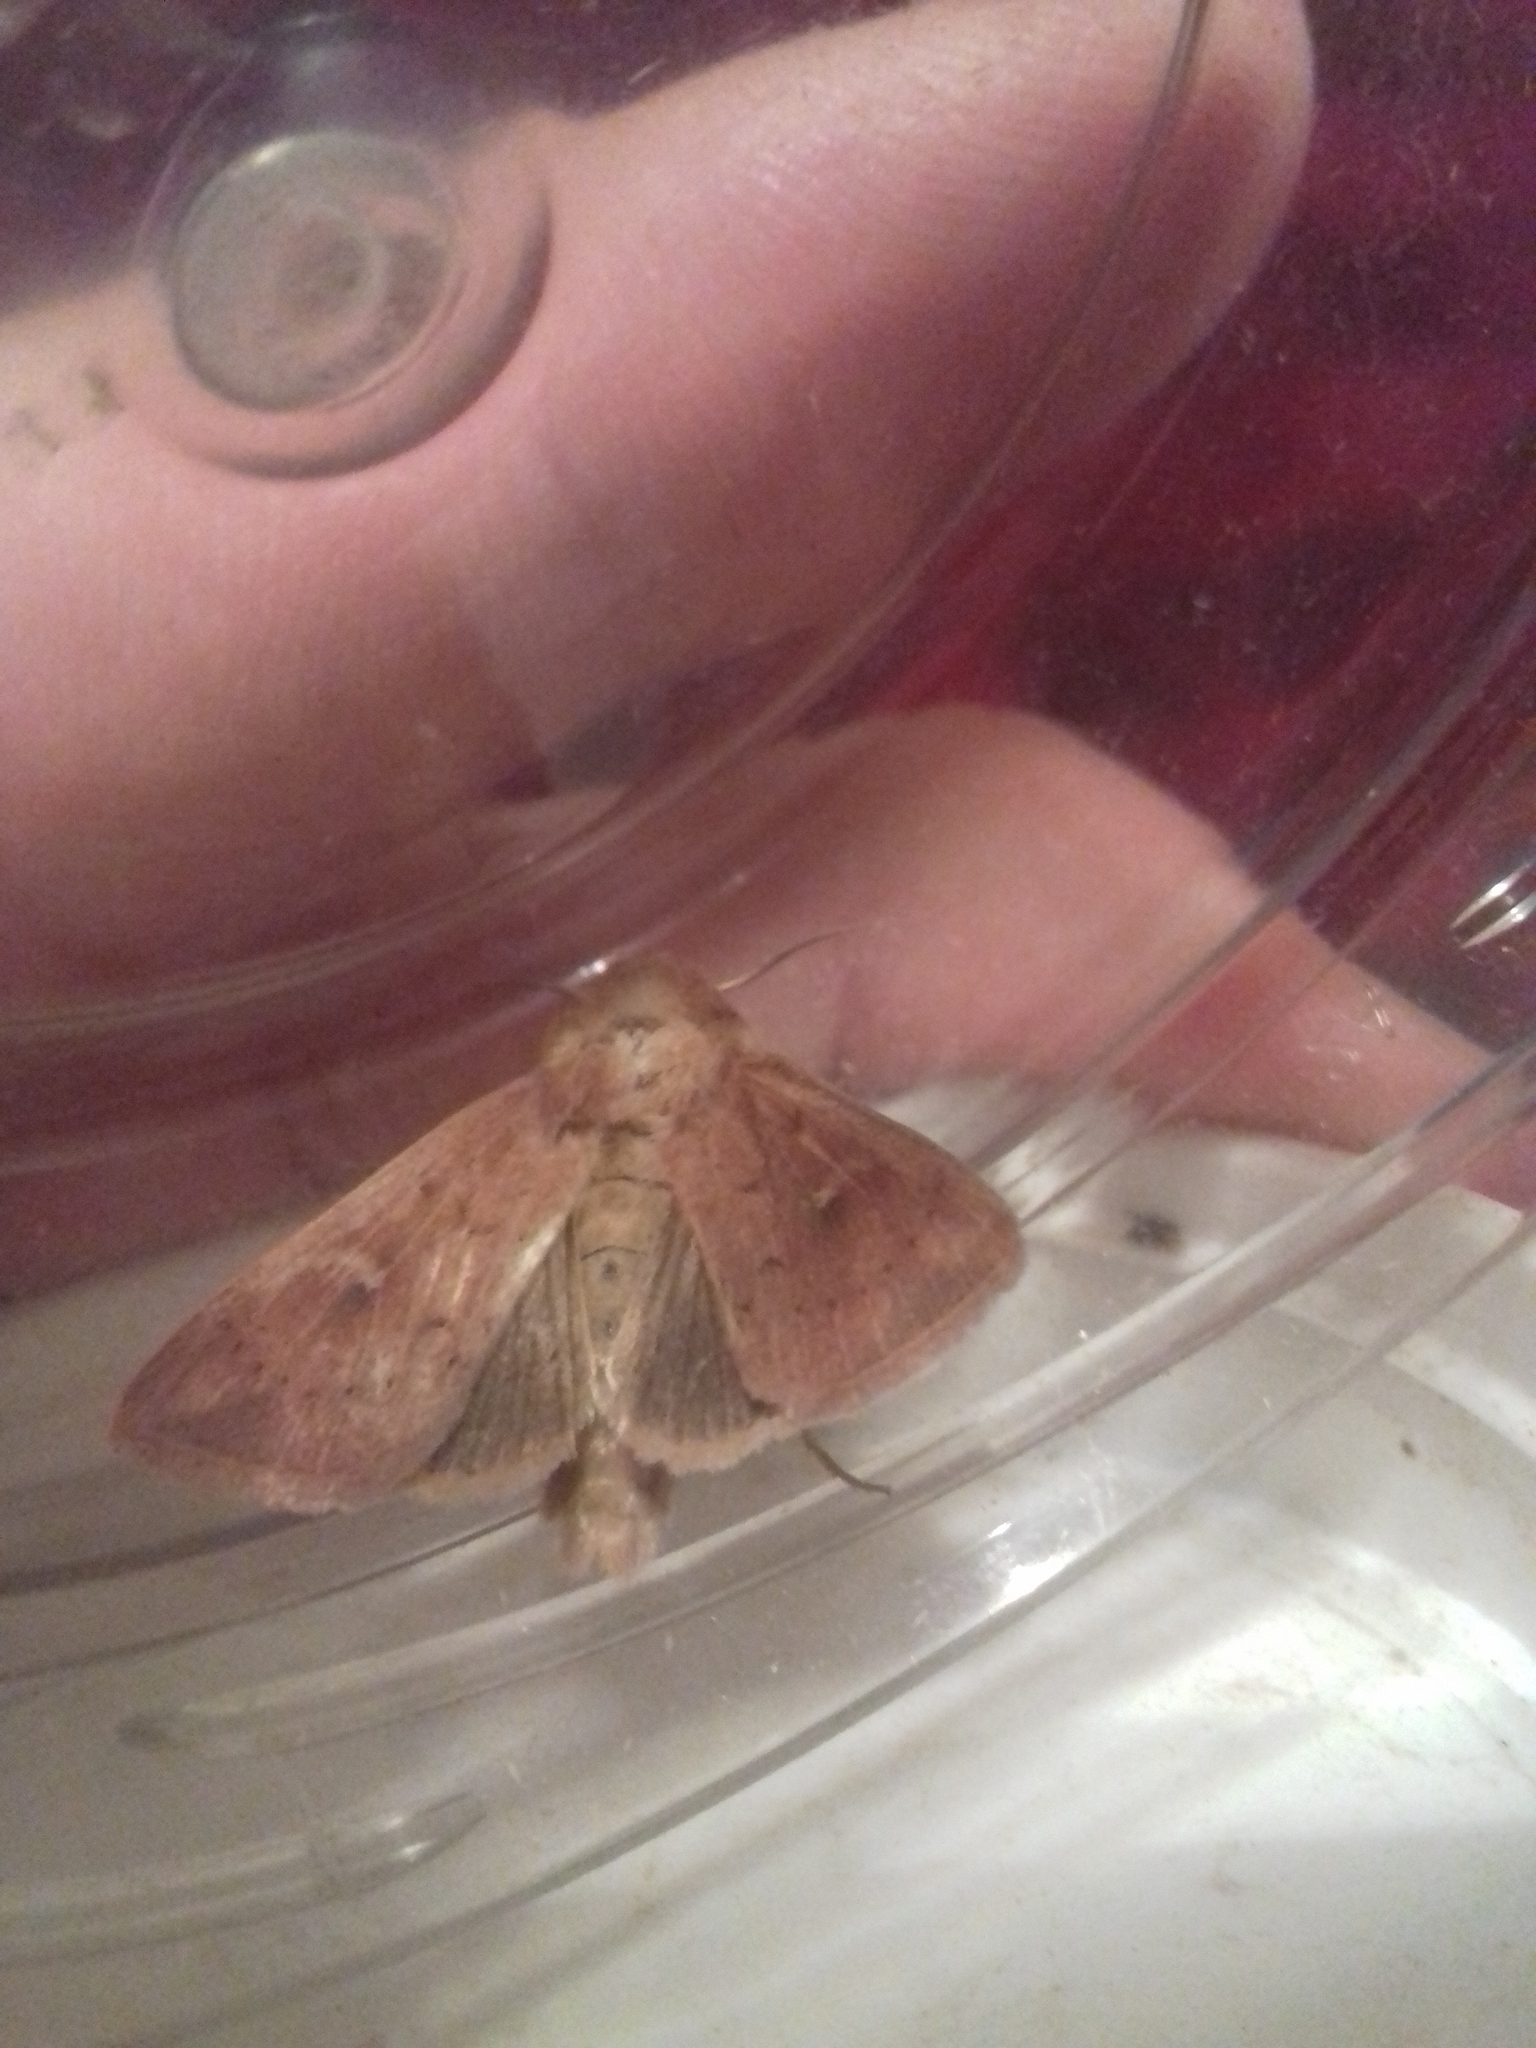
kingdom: Animalia
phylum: Arthropoda
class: Insecta
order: Lepidoptera
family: Noctuidae
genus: Mythimna
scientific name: Mythimna ferrago
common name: Clay
